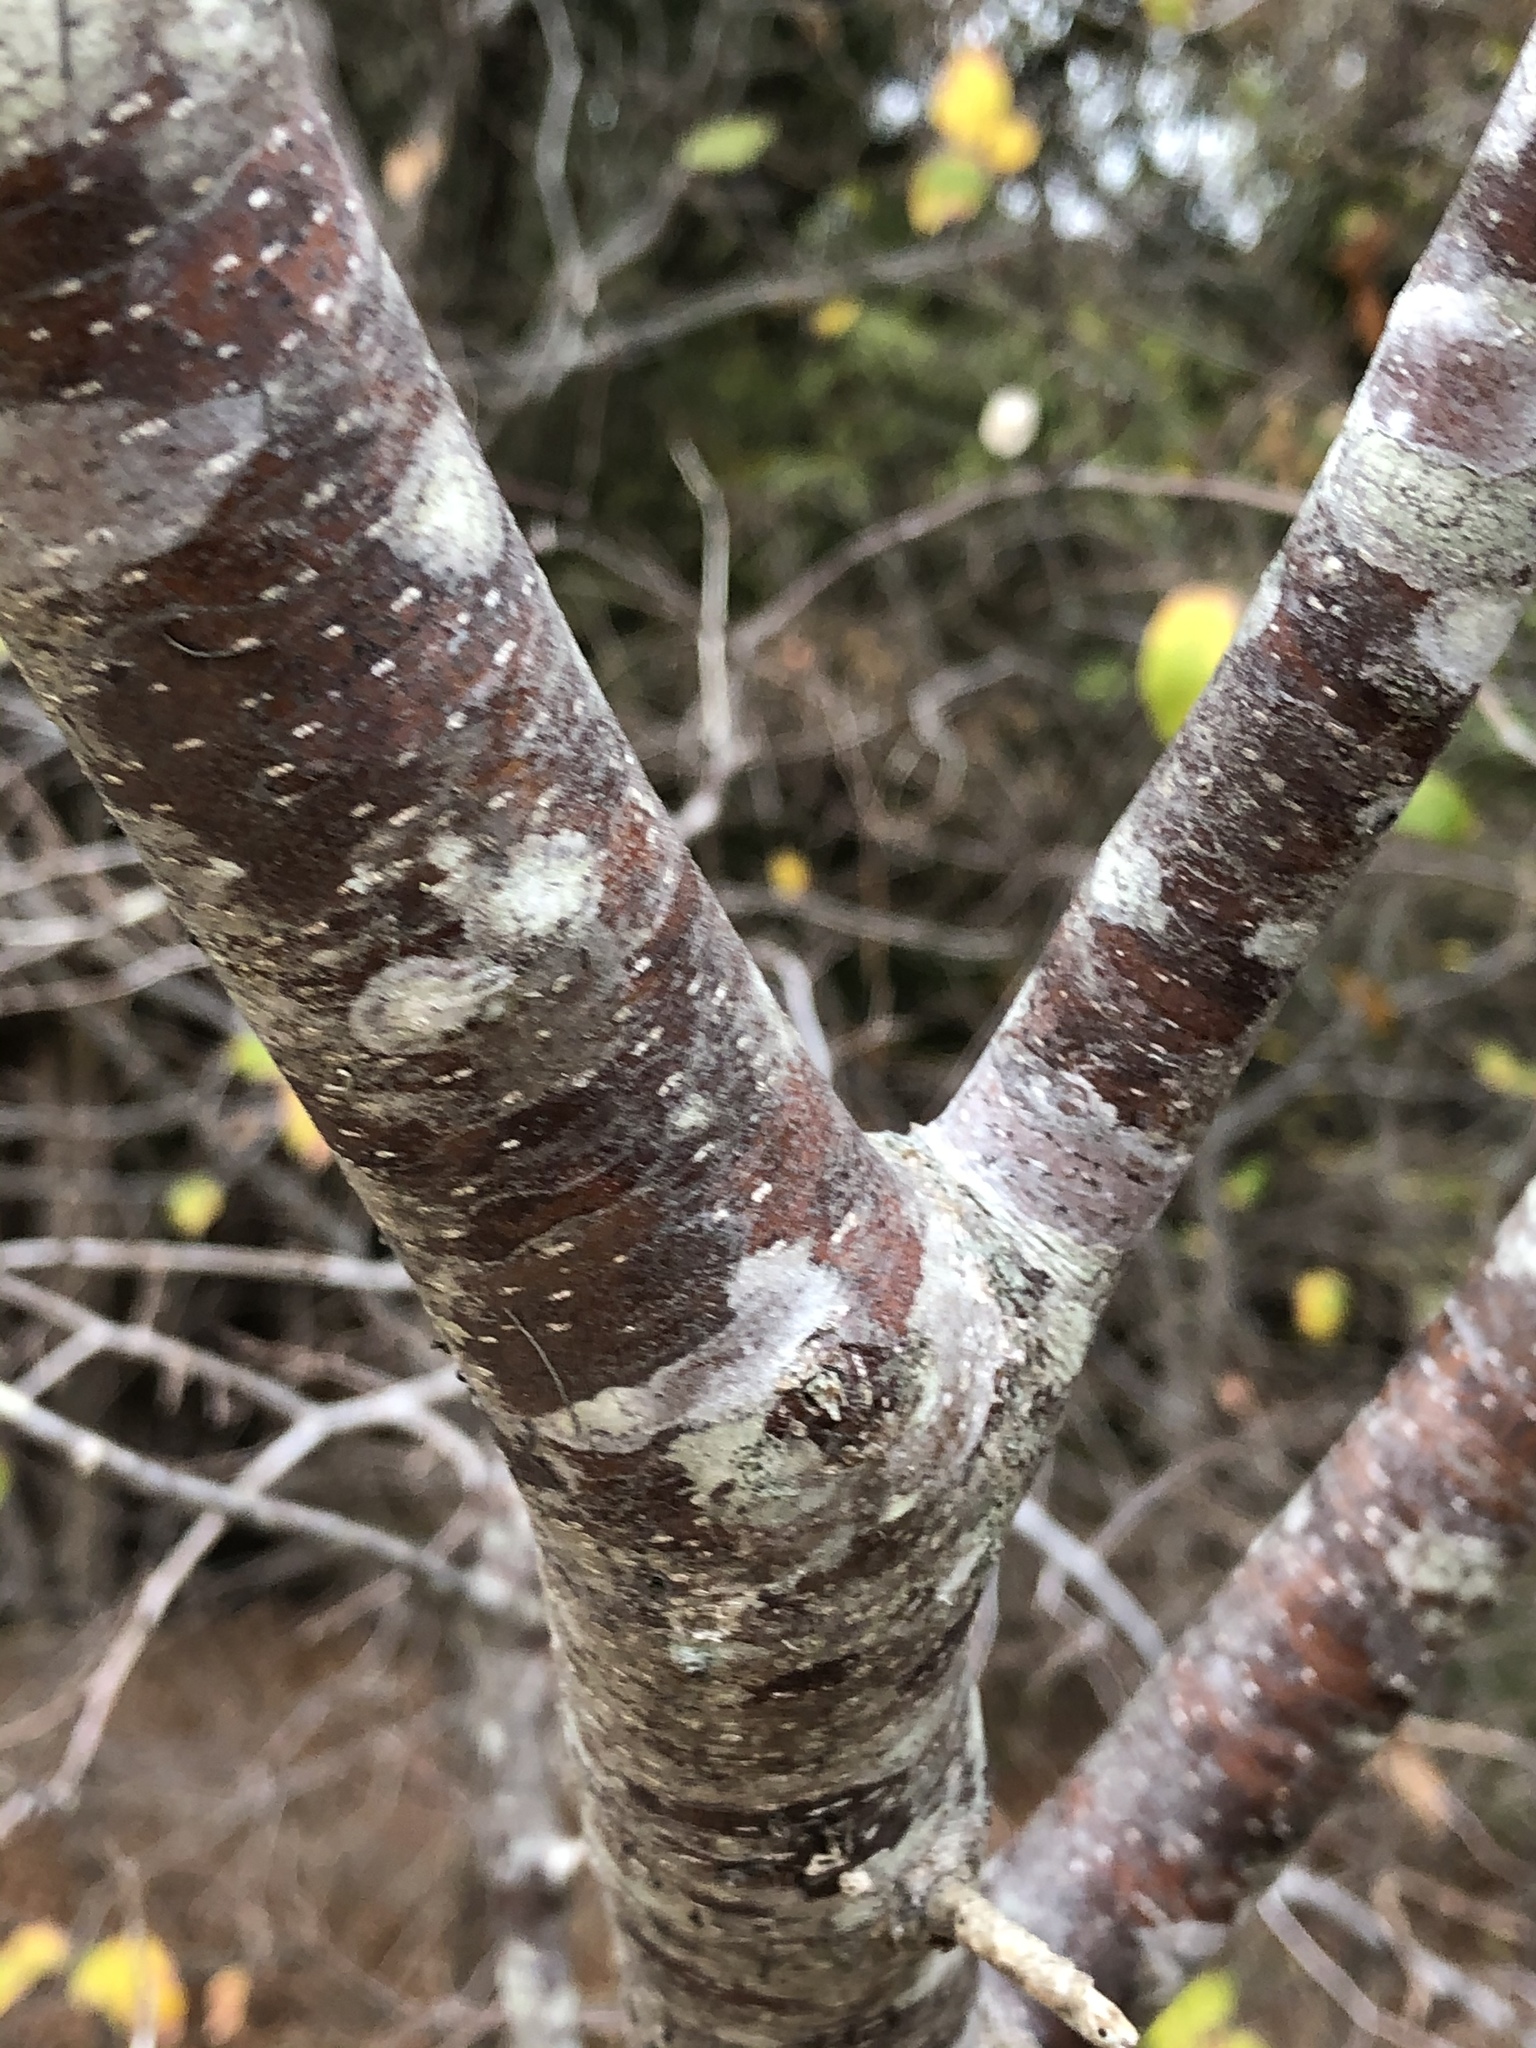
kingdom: Plantae
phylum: Tracheophyta
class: Magnoliopsida
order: Sapindales
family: Rutaceae
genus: Ptelea
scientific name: Ptelea trifoliata
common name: Common hop-tree
